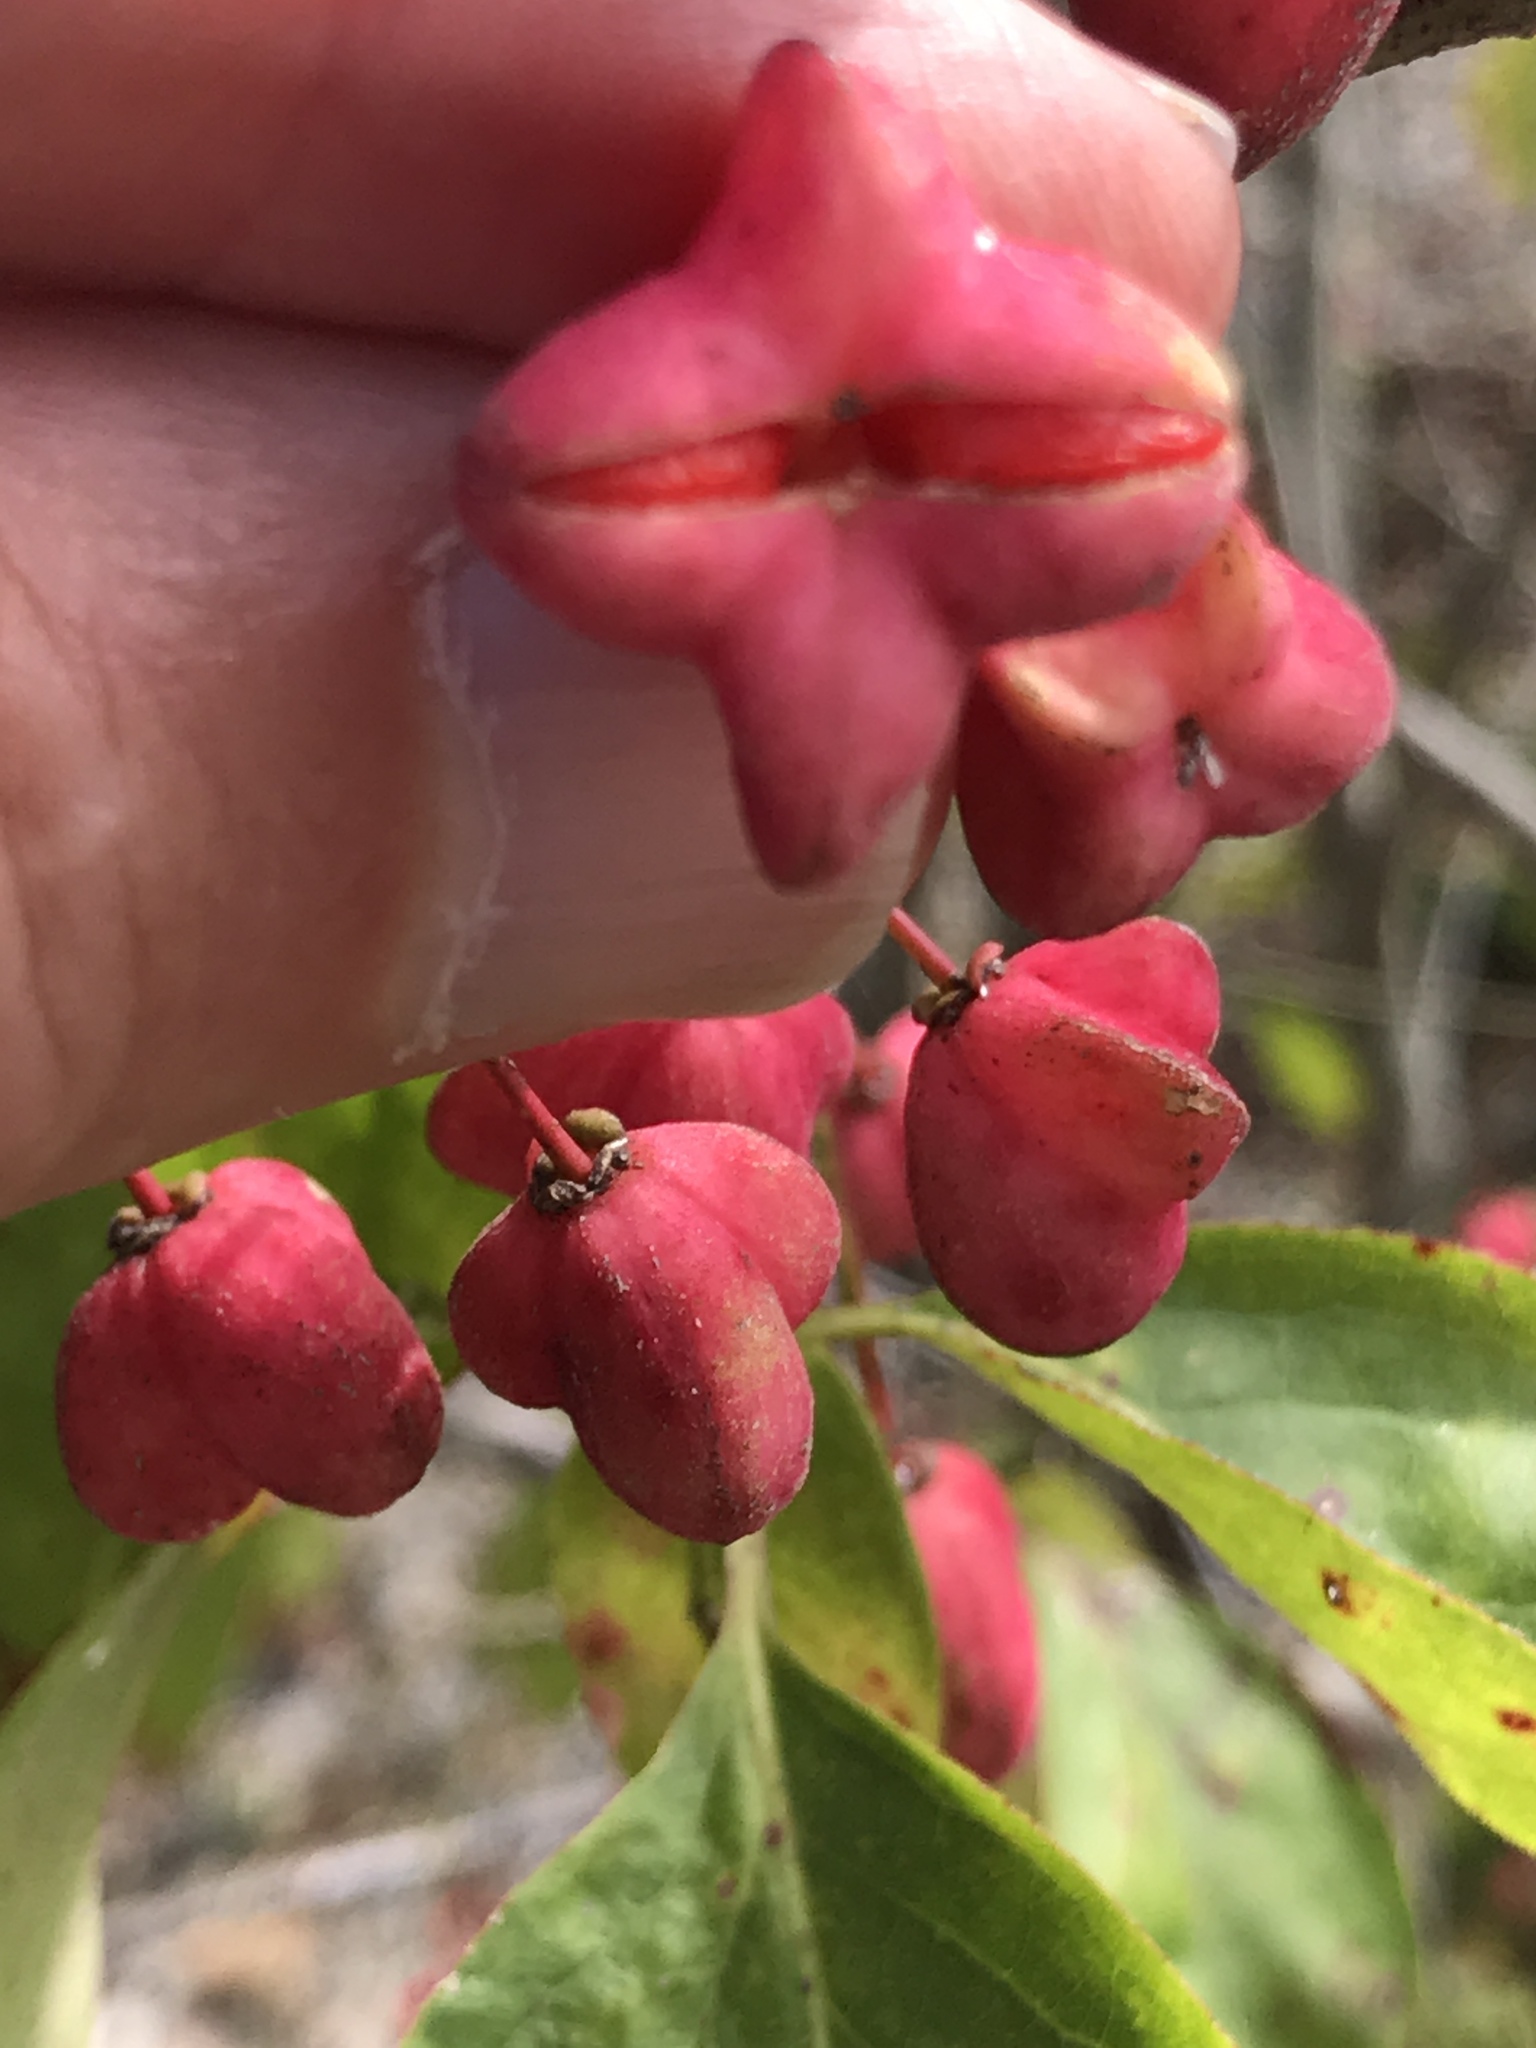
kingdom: Plantae
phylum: Tracheophyta
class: Magnoliopsida
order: Celastrales
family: Celastraceae
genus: Euonymus
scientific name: Euonymus atropurpureus
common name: Eastern wahoo
